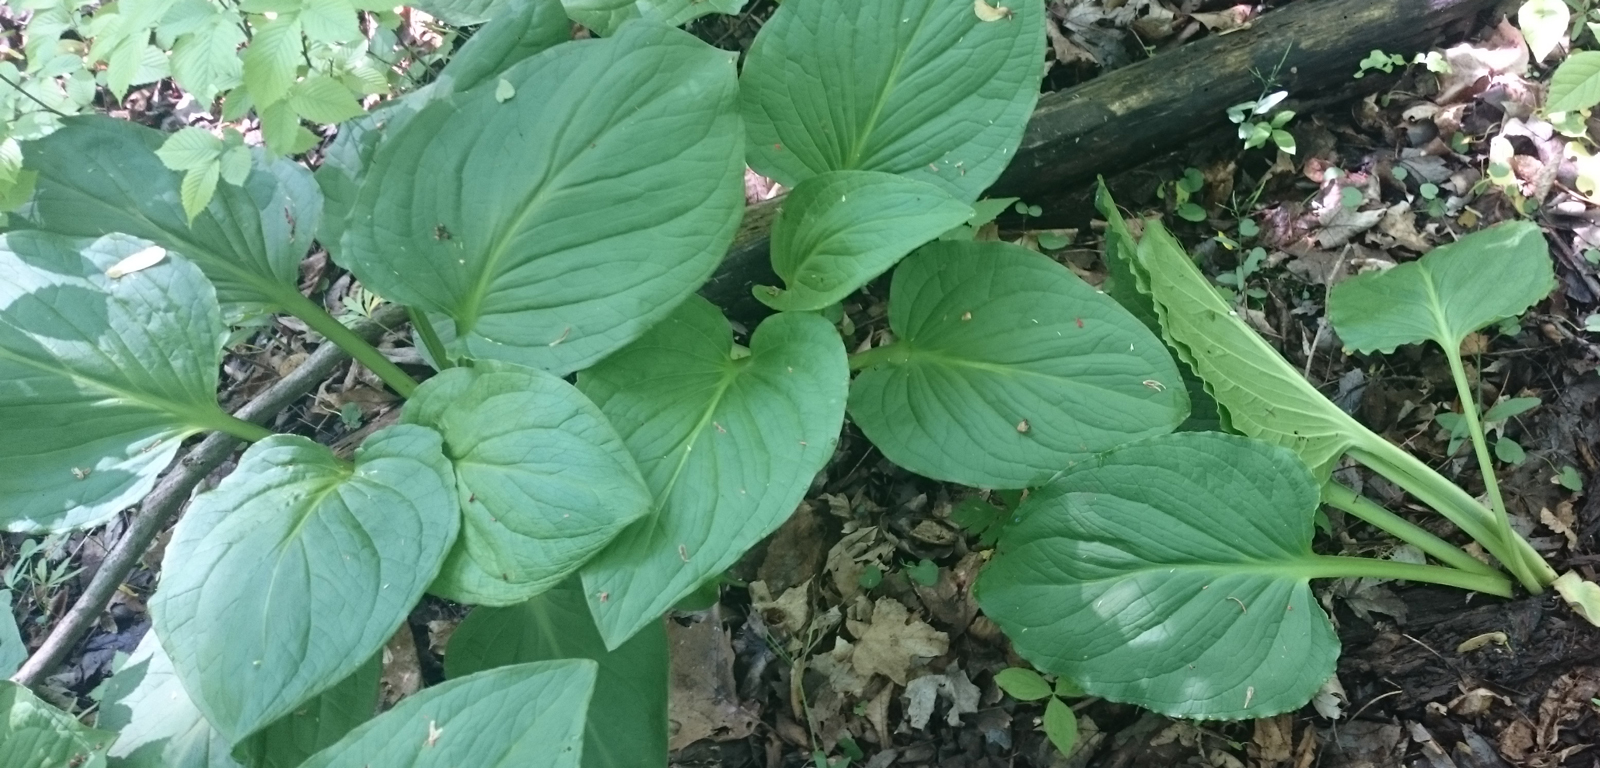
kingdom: Plantae
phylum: Tracheophyta
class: Liliopsida
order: Alismatales
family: Araceae
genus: Symplocarpus
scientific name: Symplocarpus foetidus
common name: Eastern skunk cabbage
